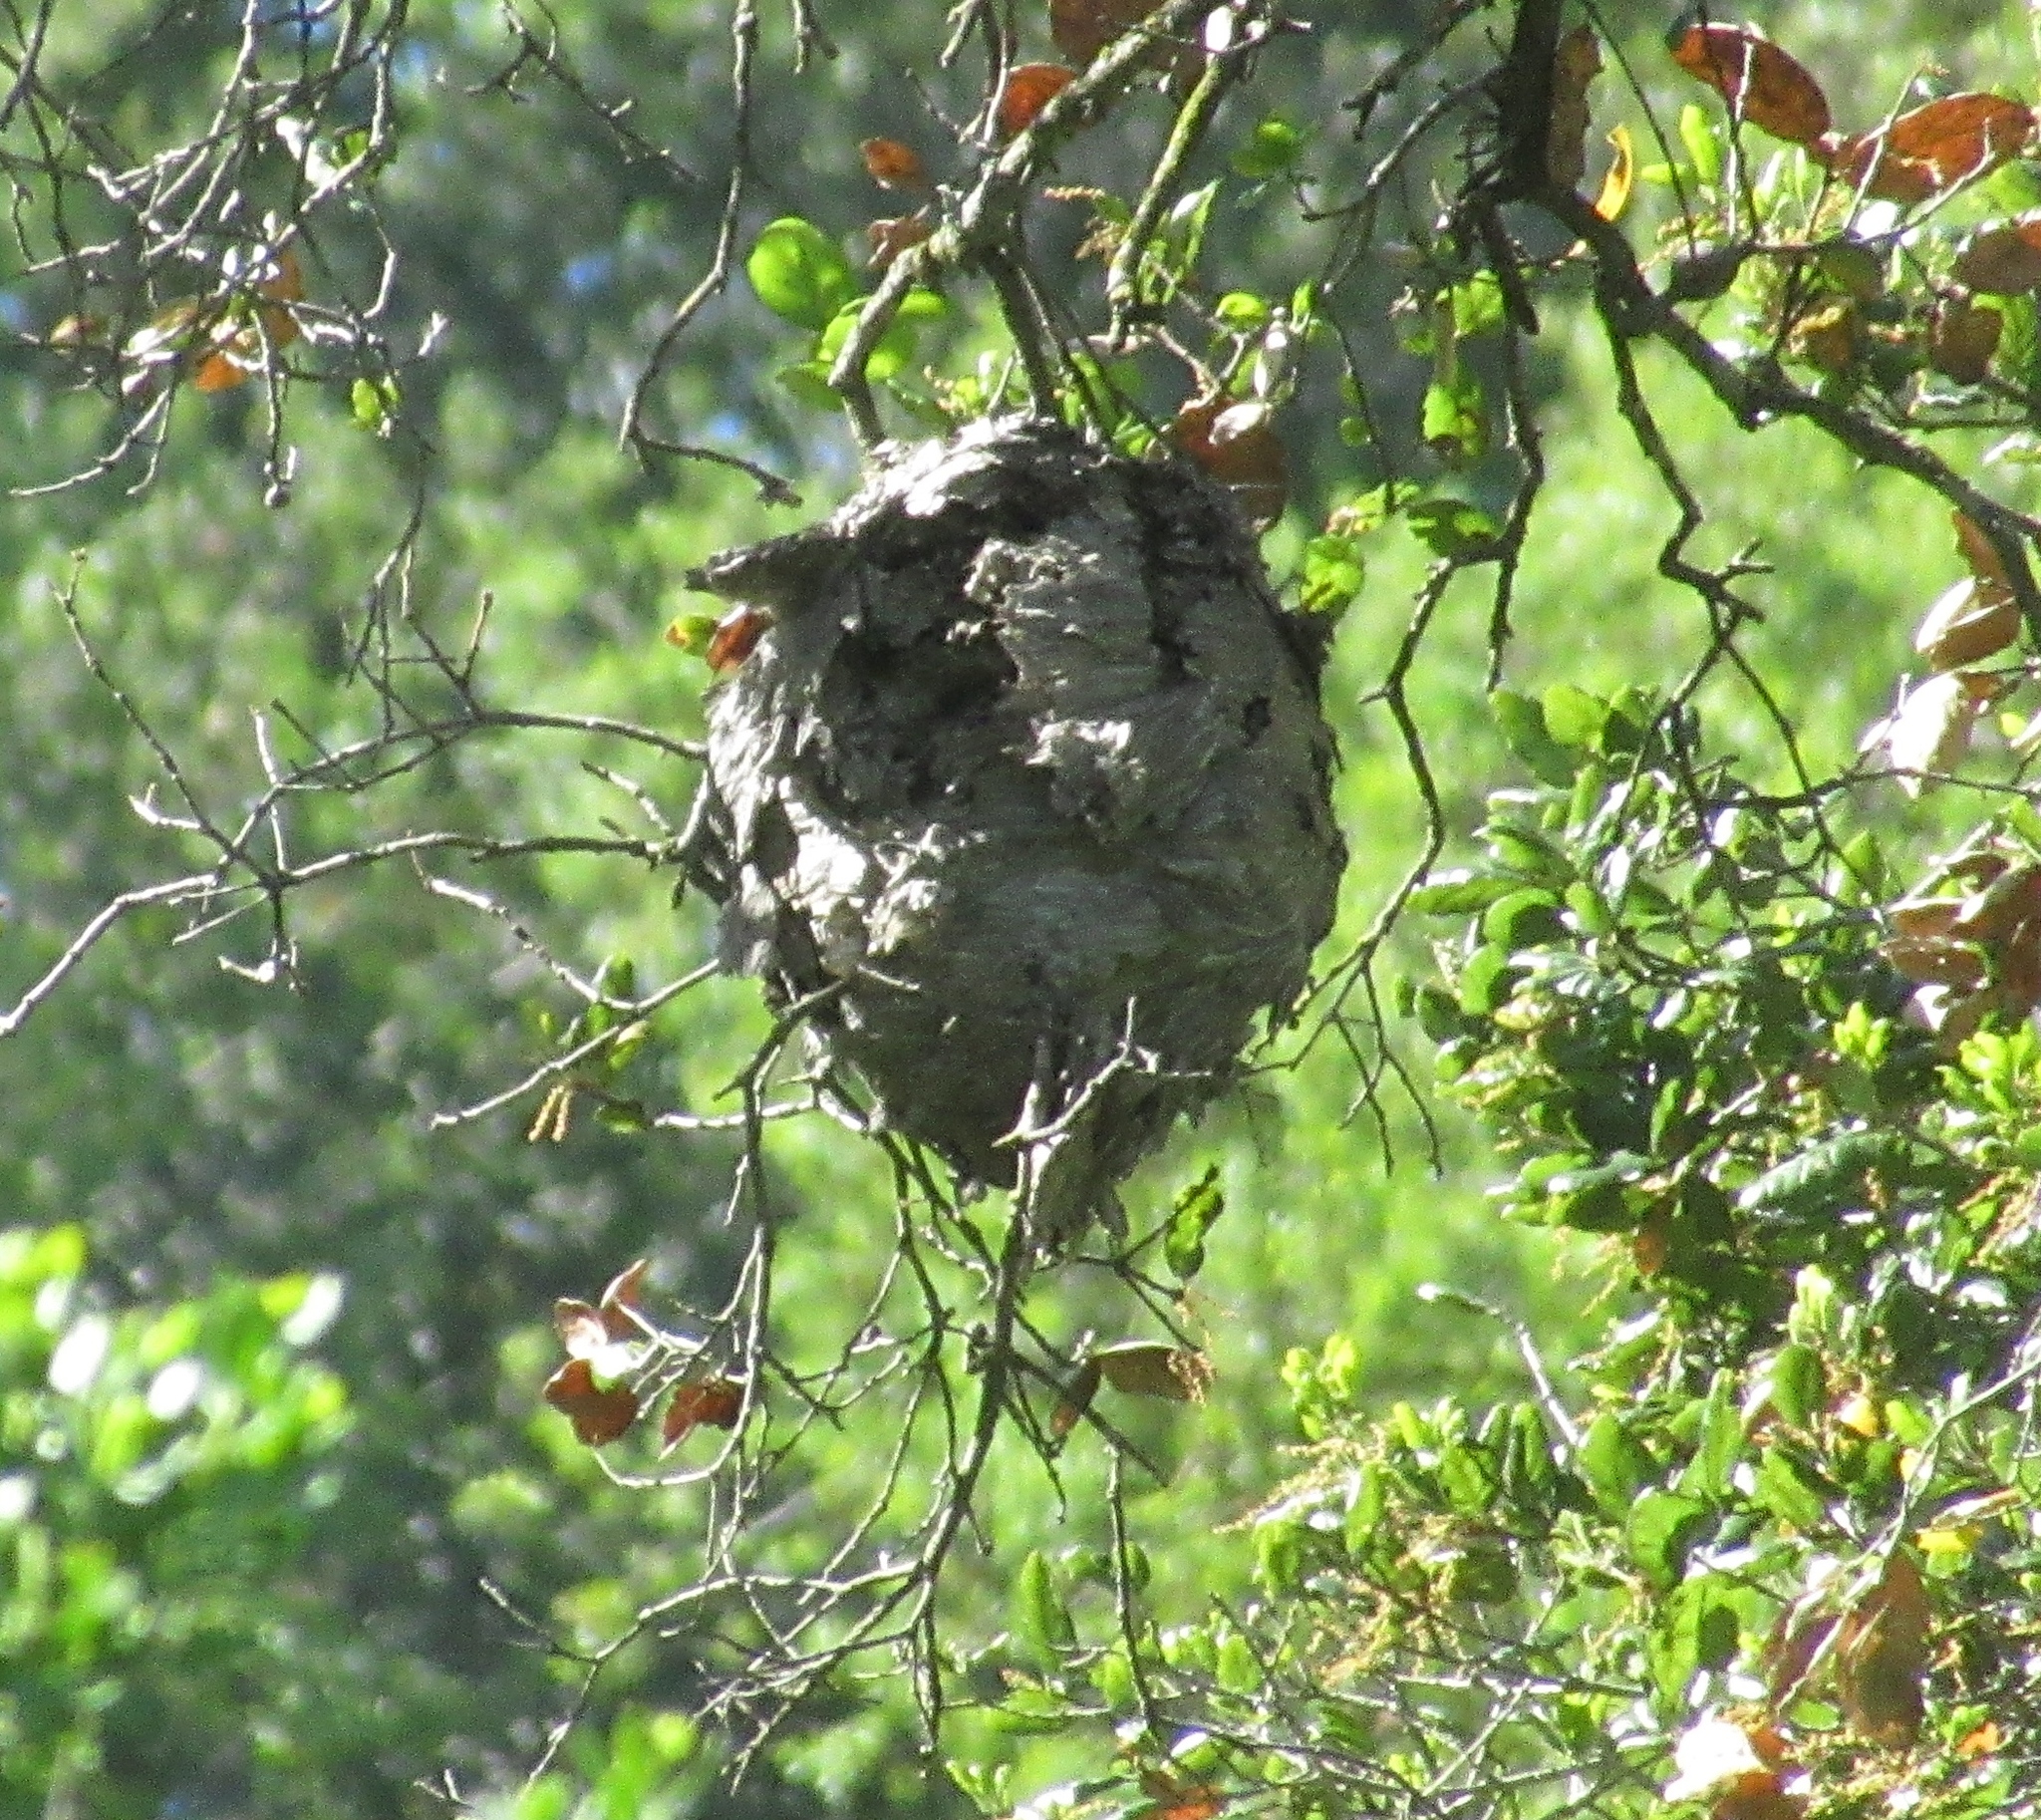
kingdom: Animalia
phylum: Arthropoda
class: Insecta
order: Hymenoptera
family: Vespidae
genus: Dolichovespula
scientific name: Dolichovespula
